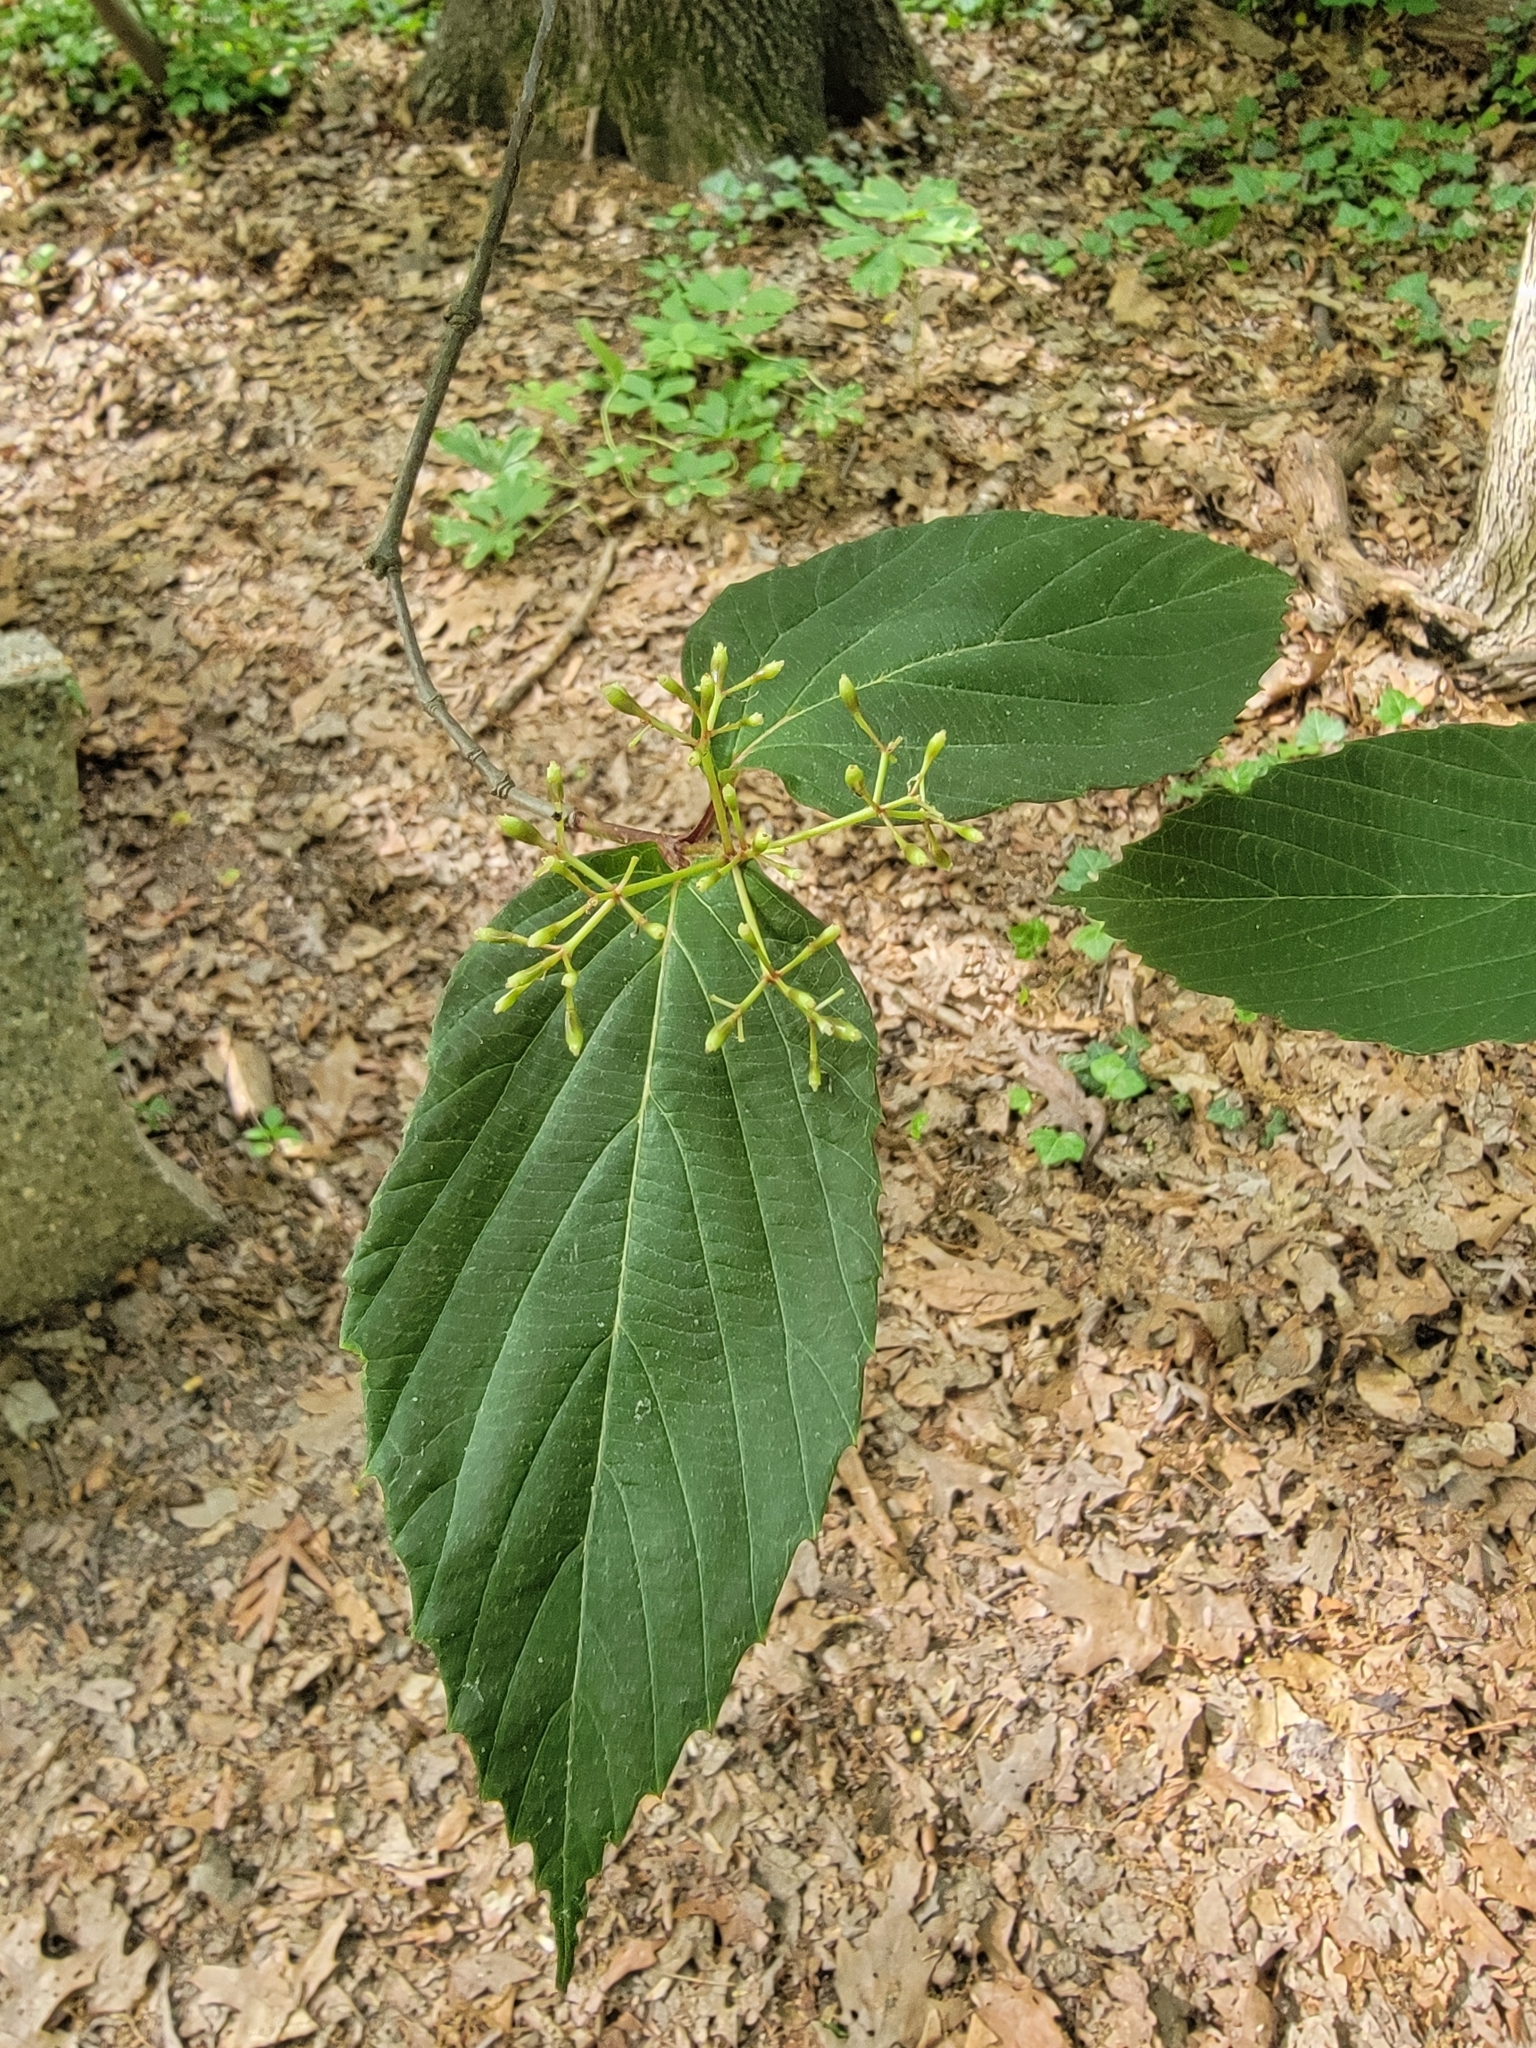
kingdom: Plantae
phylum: Tracheophyta
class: Magnoliopsida
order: Dipsacales
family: Viburnaceae
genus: Viburnum
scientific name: Viburnum setigerum
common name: Tea viburnum
